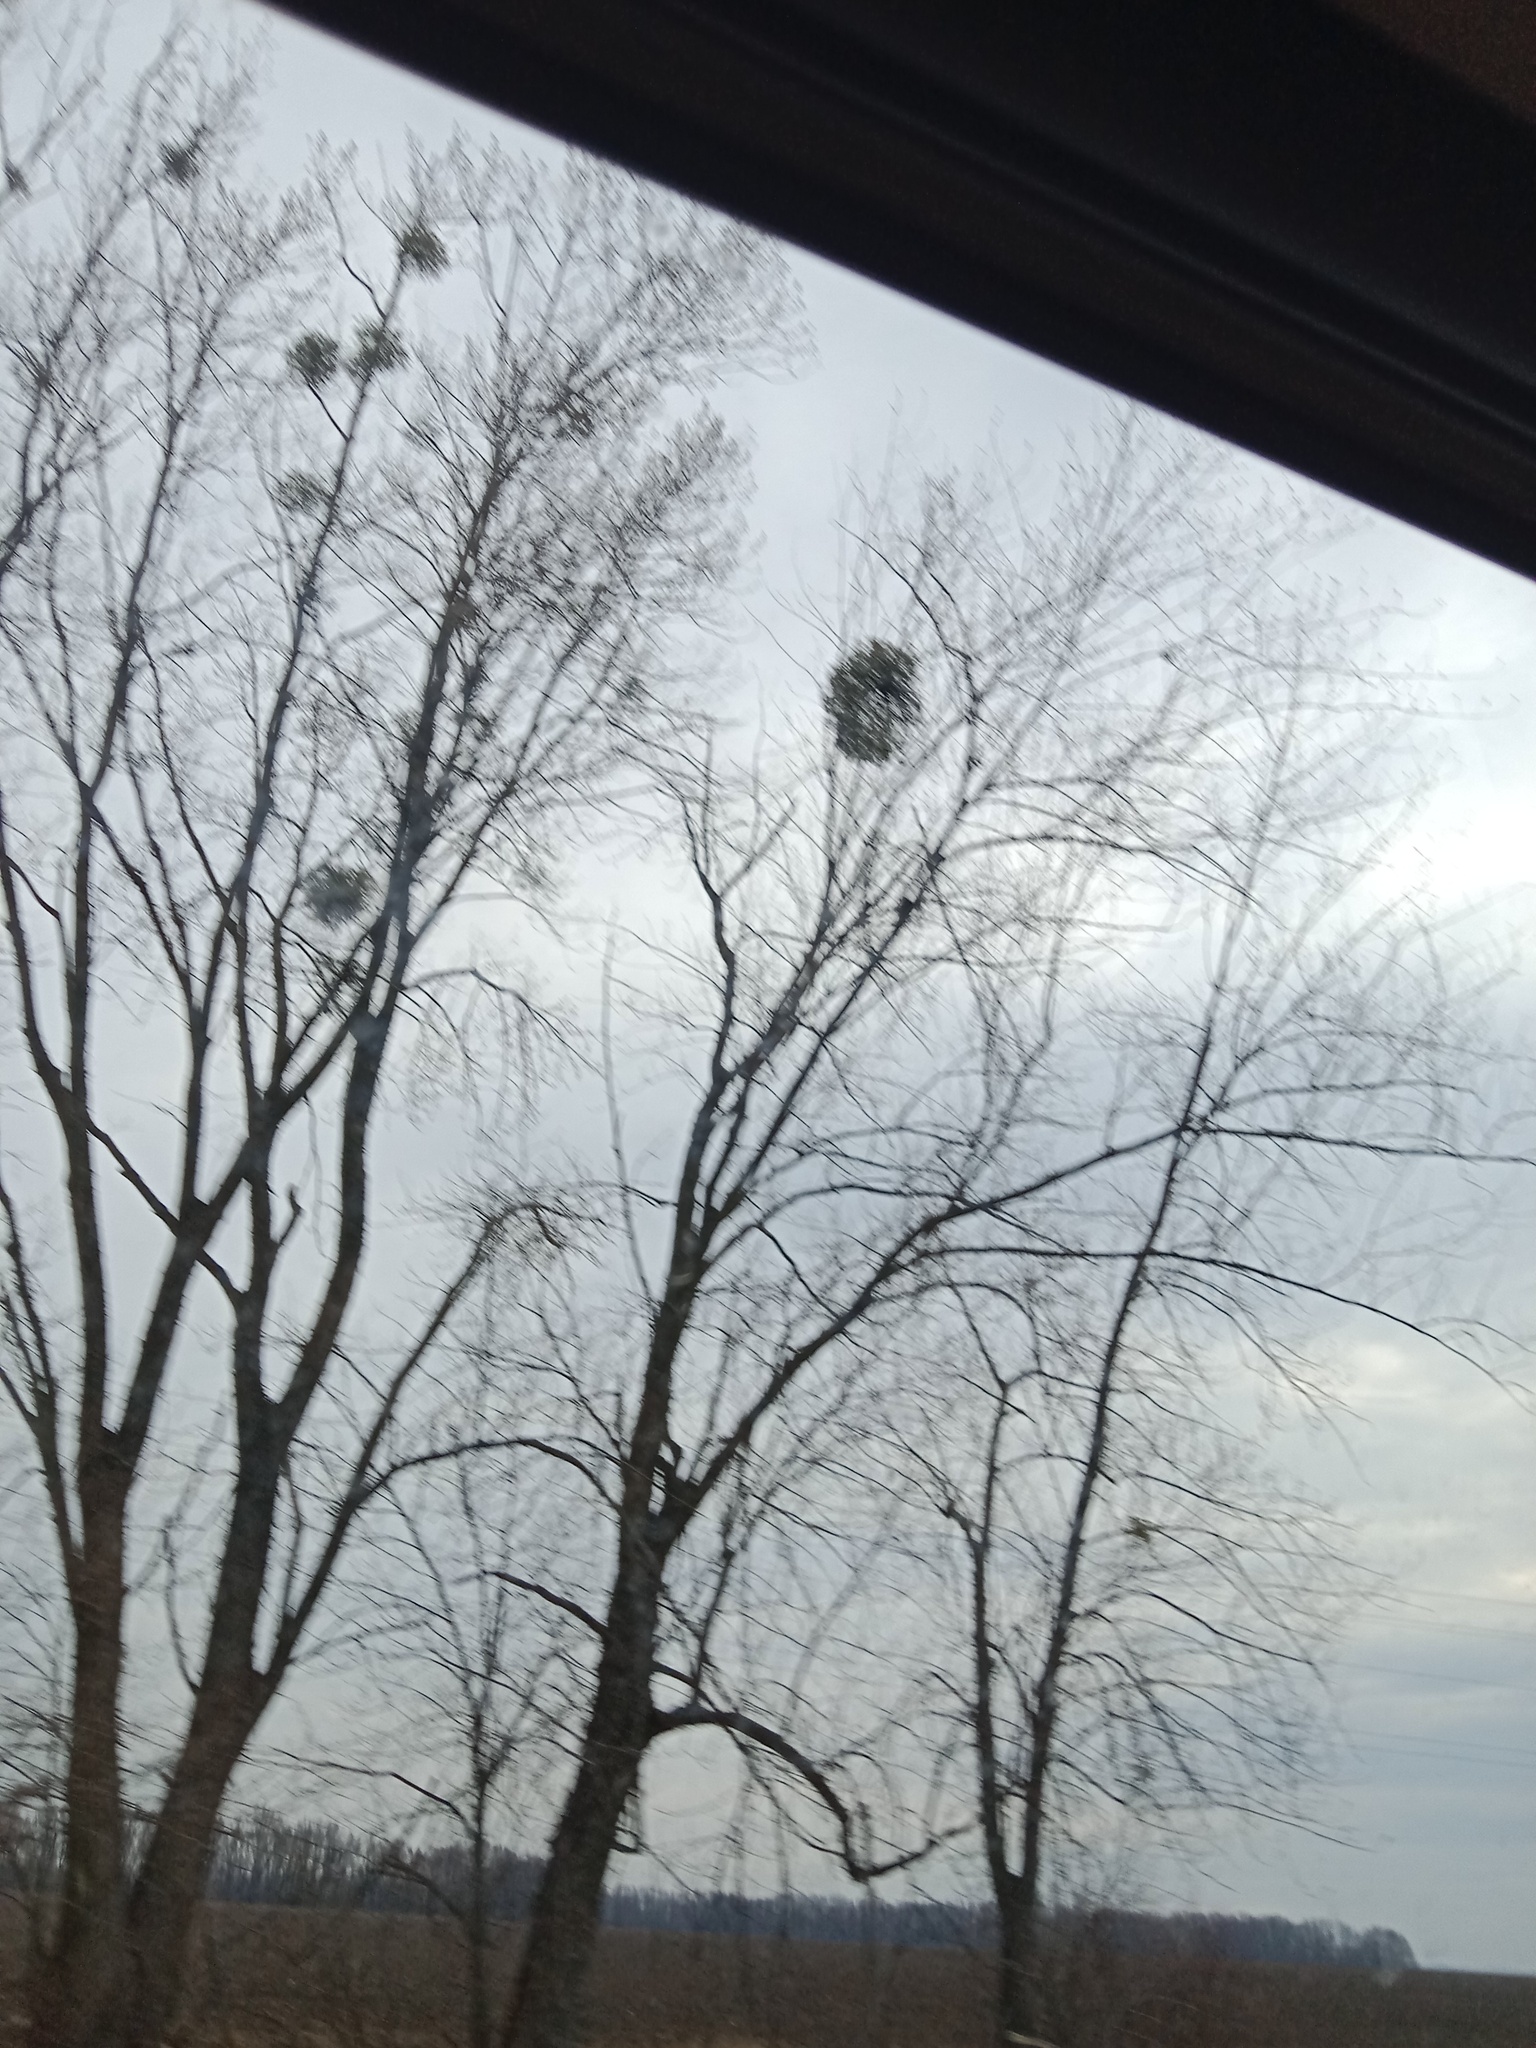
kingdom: Plantae
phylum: Tracheophyta
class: Magnoliopsida
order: Santalales
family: Viscaceae
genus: Viscum
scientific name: Viscum album
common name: Mistletoe
